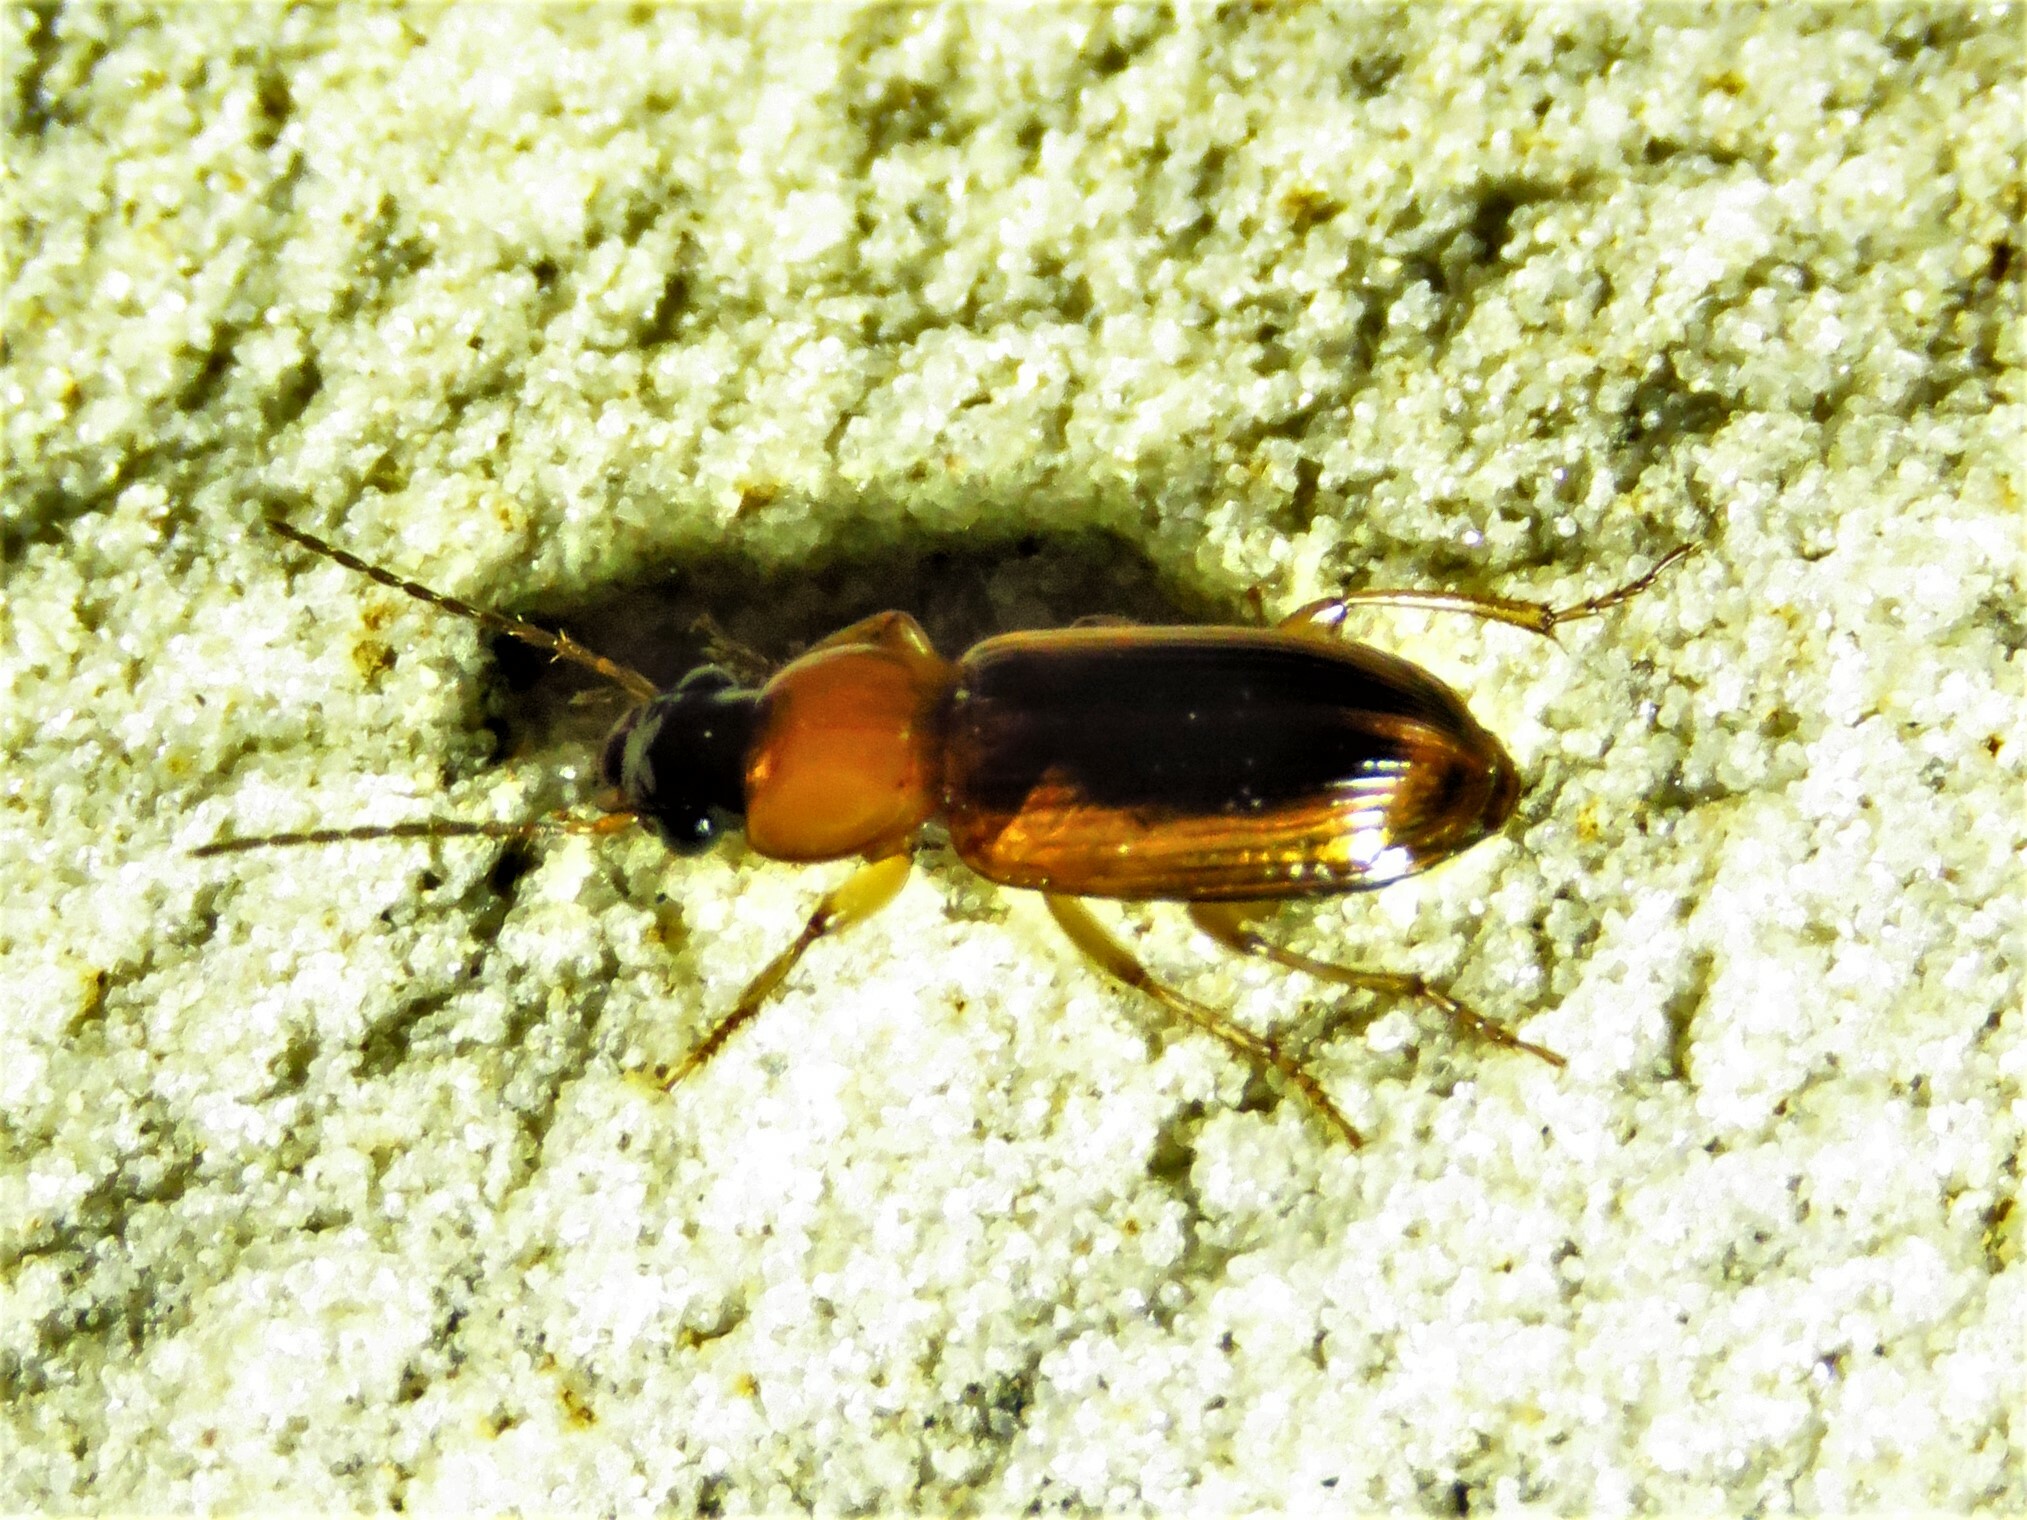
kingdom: Animalia
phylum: Arthropoda
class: Insecta
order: Coleoptera
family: Carabidae
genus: Stenolophus
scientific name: Stenolophus dissimilis
